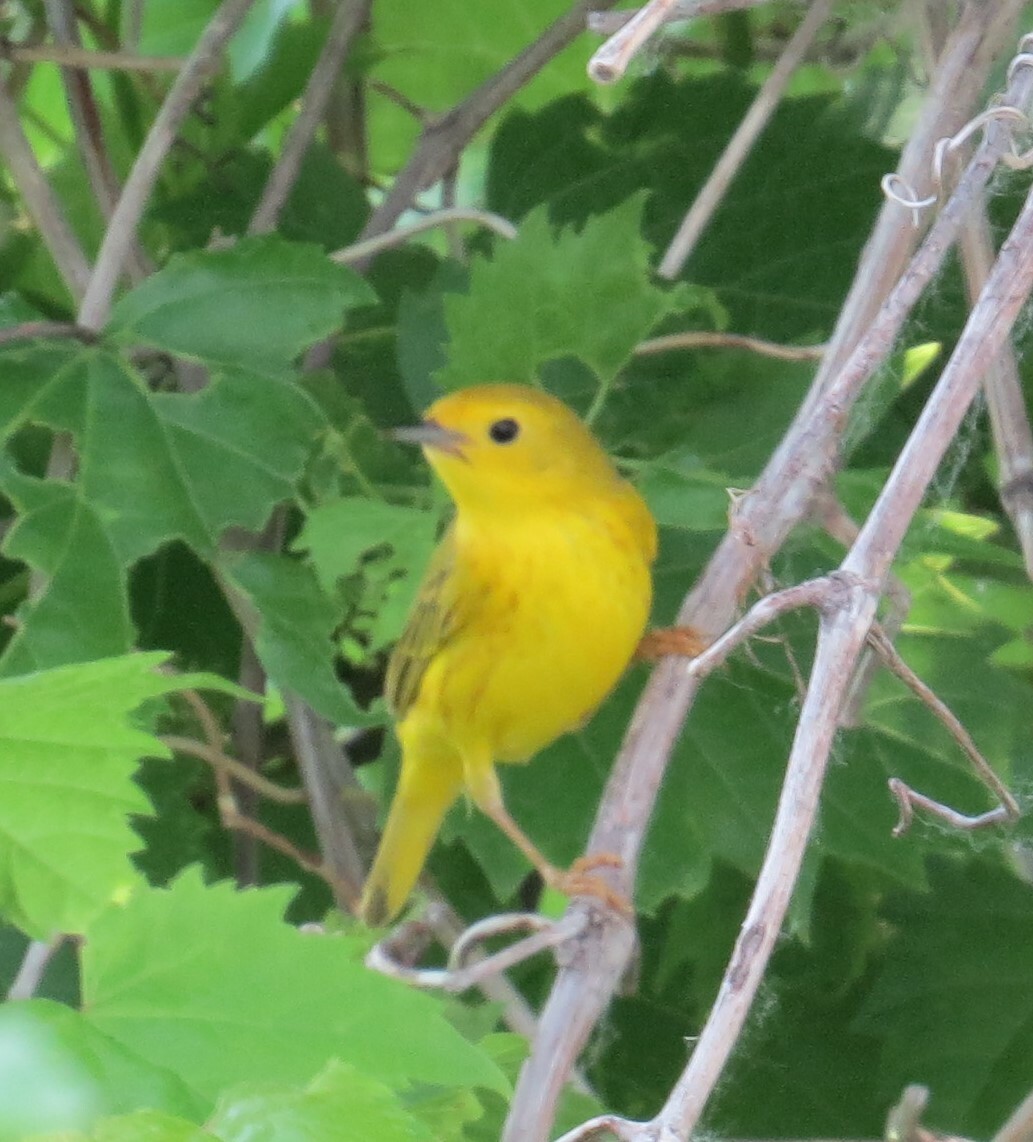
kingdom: Animalia
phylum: Chordata
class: Aves
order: Passeriformes
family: Parulidae
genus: Setophaga
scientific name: Setophaga petechia
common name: Yellow warbler
